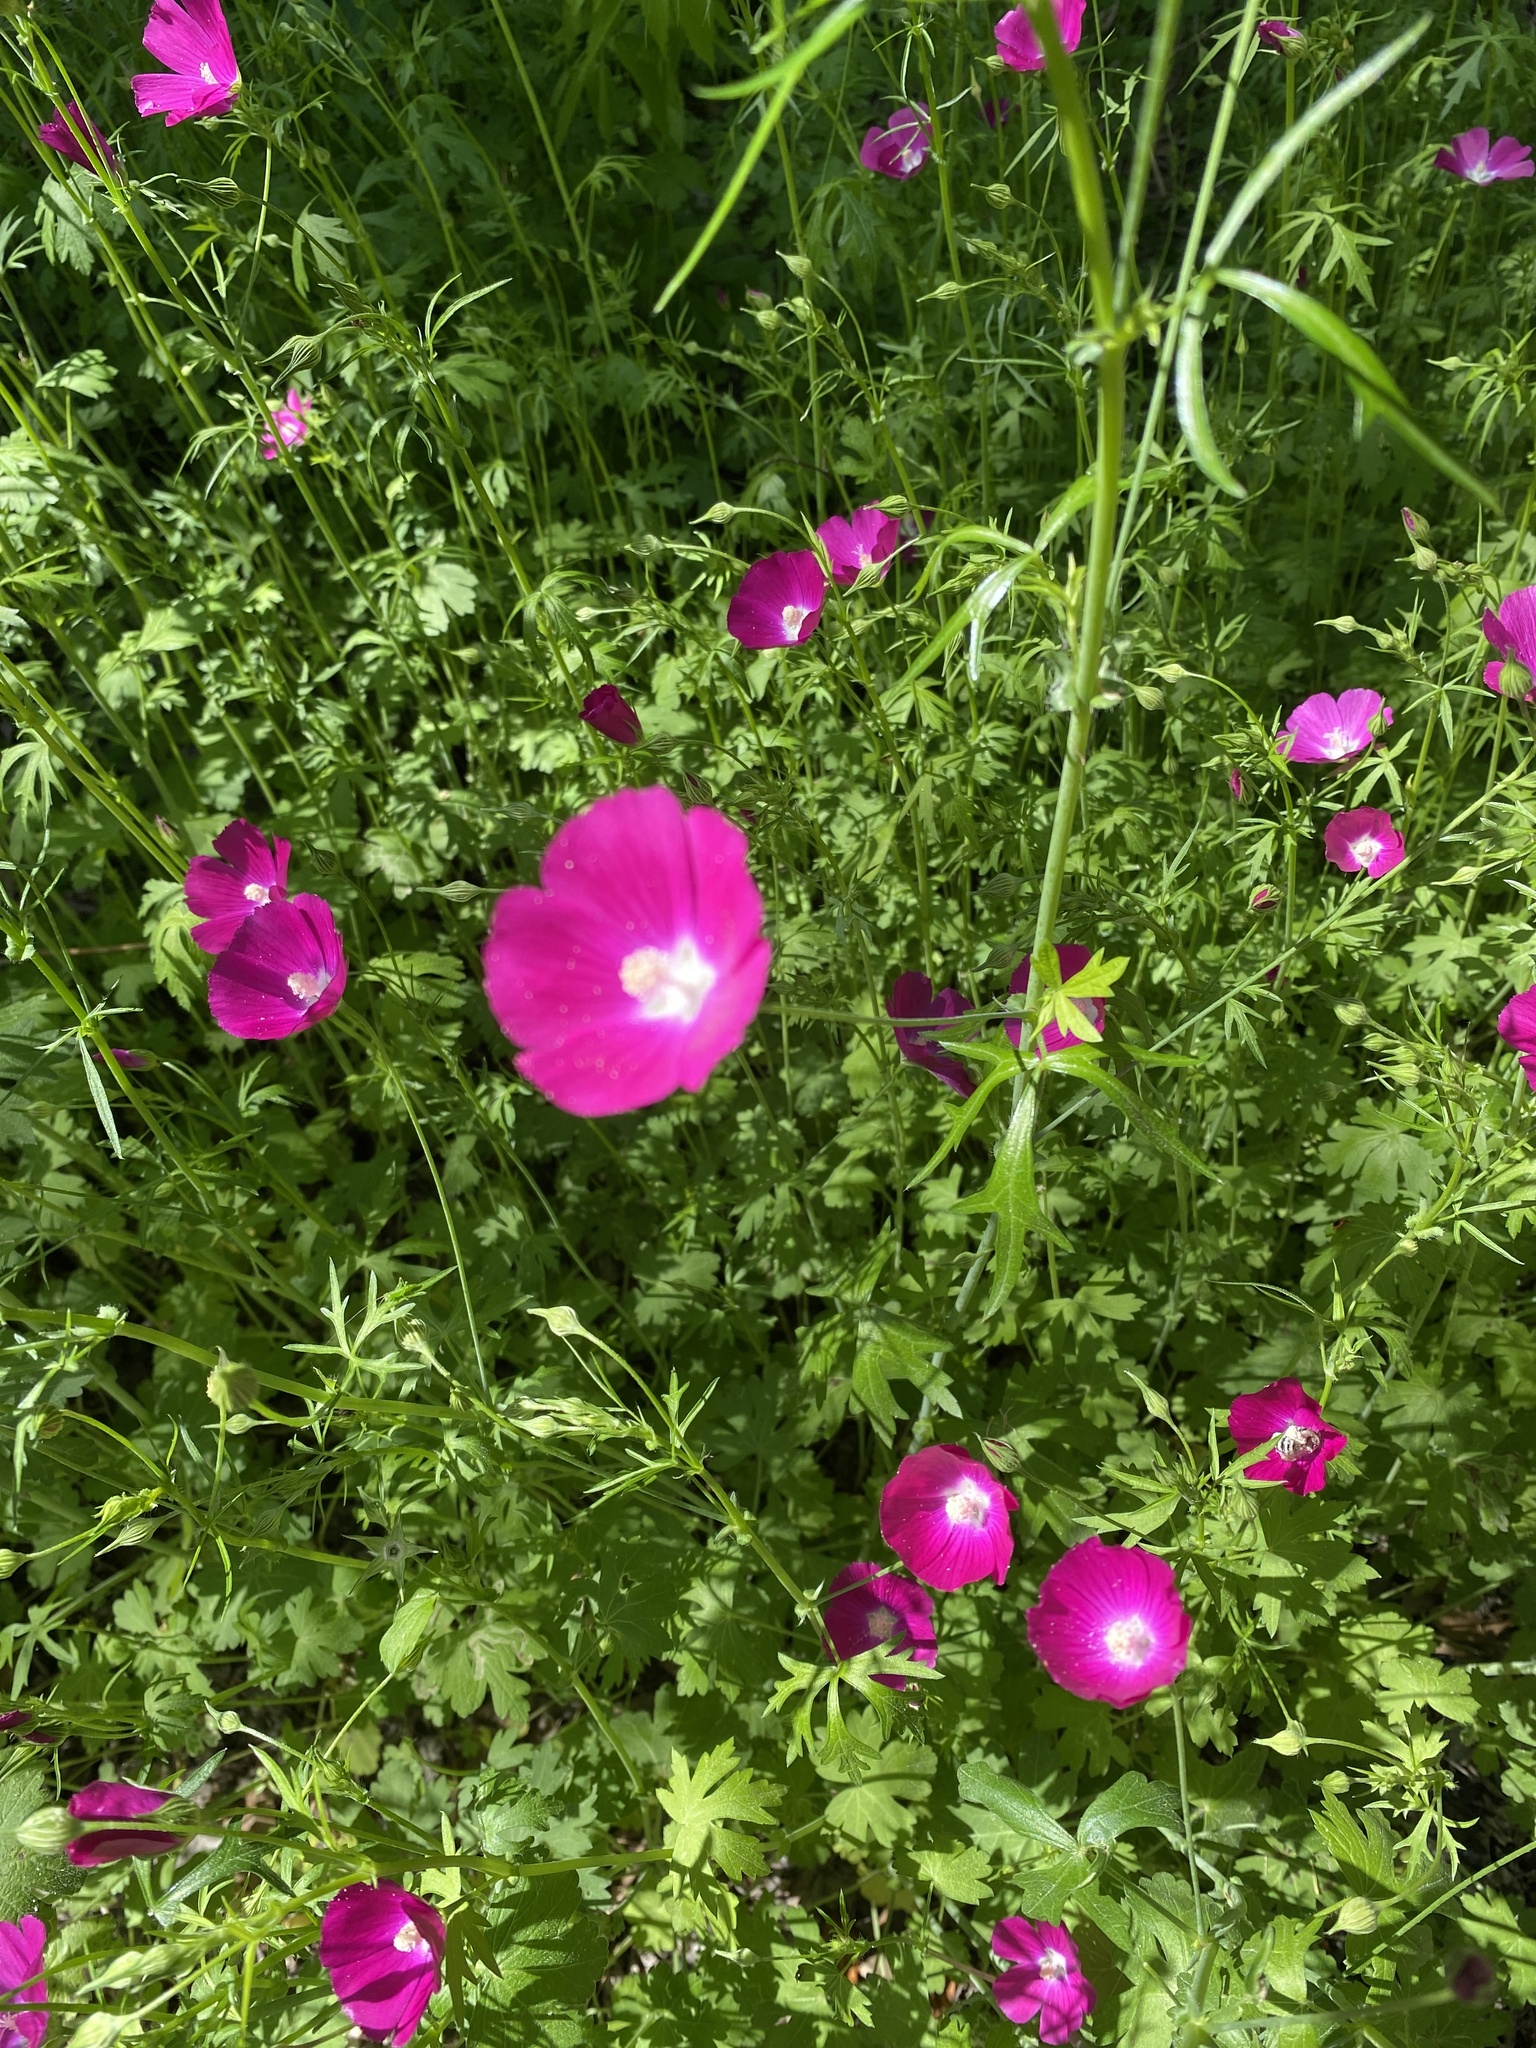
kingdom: Plantae
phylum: Tracheophyta
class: Magnoliopsida
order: Malvales
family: Malvaceae
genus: Callirhoe
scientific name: Callirhoe leiocarpa
